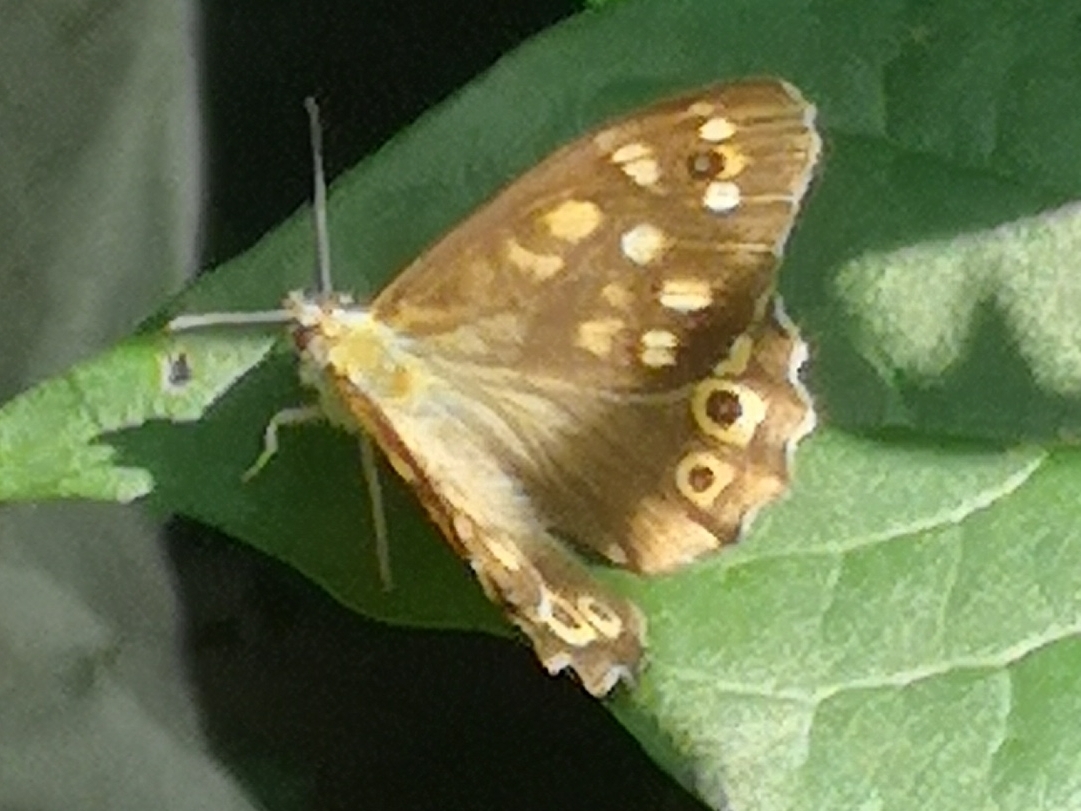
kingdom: Animalia
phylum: Arthropoda
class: Insecta
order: Lepidoptera
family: Nymphalidae
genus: Pararge
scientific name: Pararge aegeria
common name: Speckled wood
